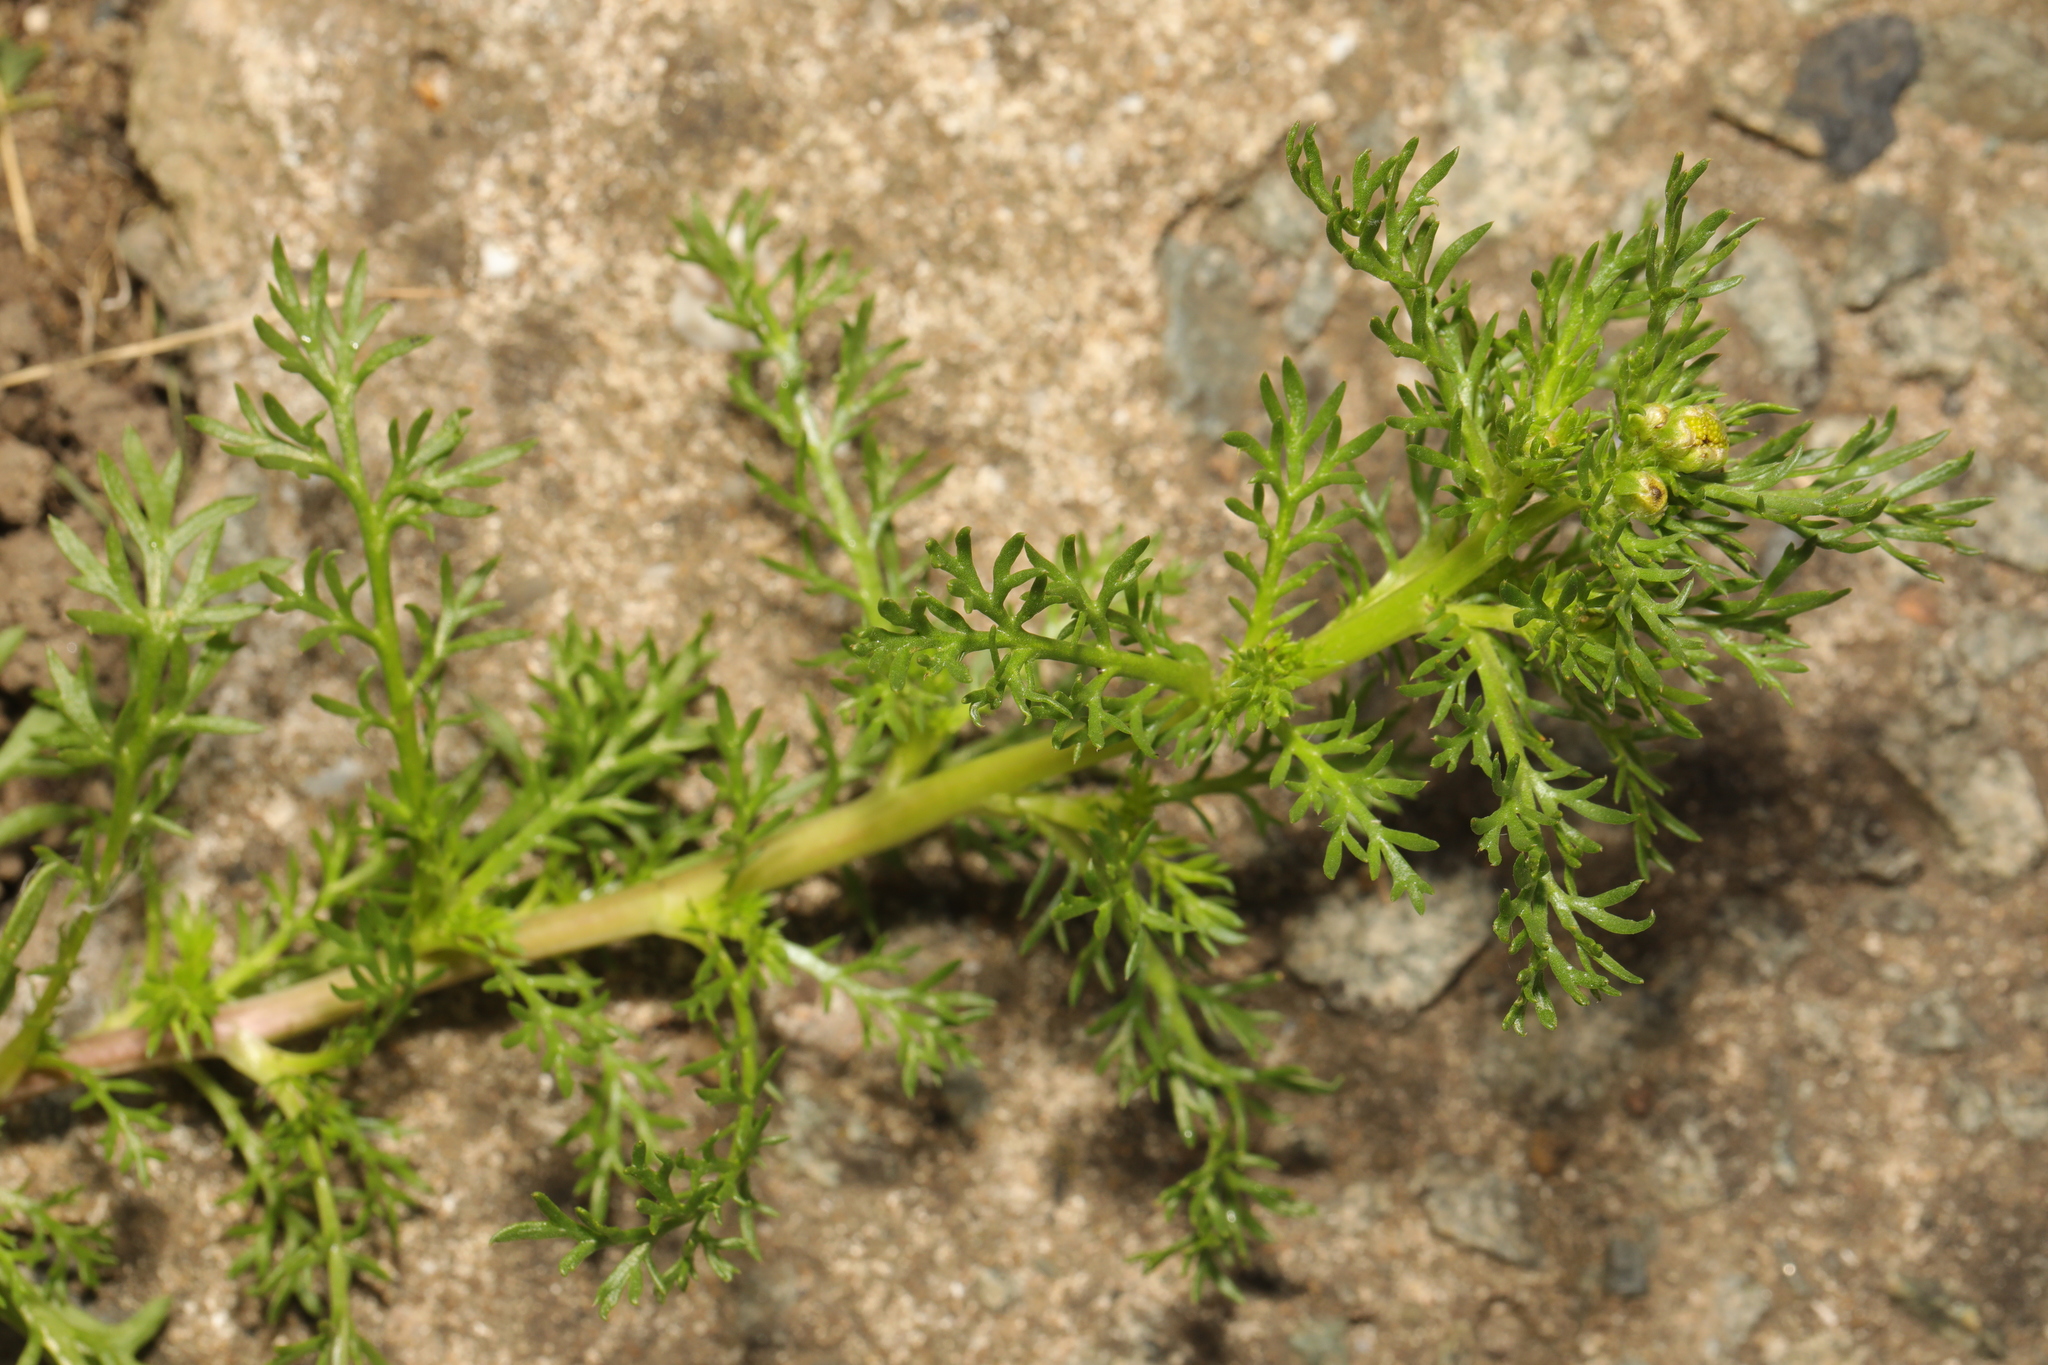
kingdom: Plantae
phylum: Tracheophyta
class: Magnoliopsida
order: Asterales
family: Asteraceae
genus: Matricaria
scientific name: Matricaria discoidea
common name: Disc mayweed
